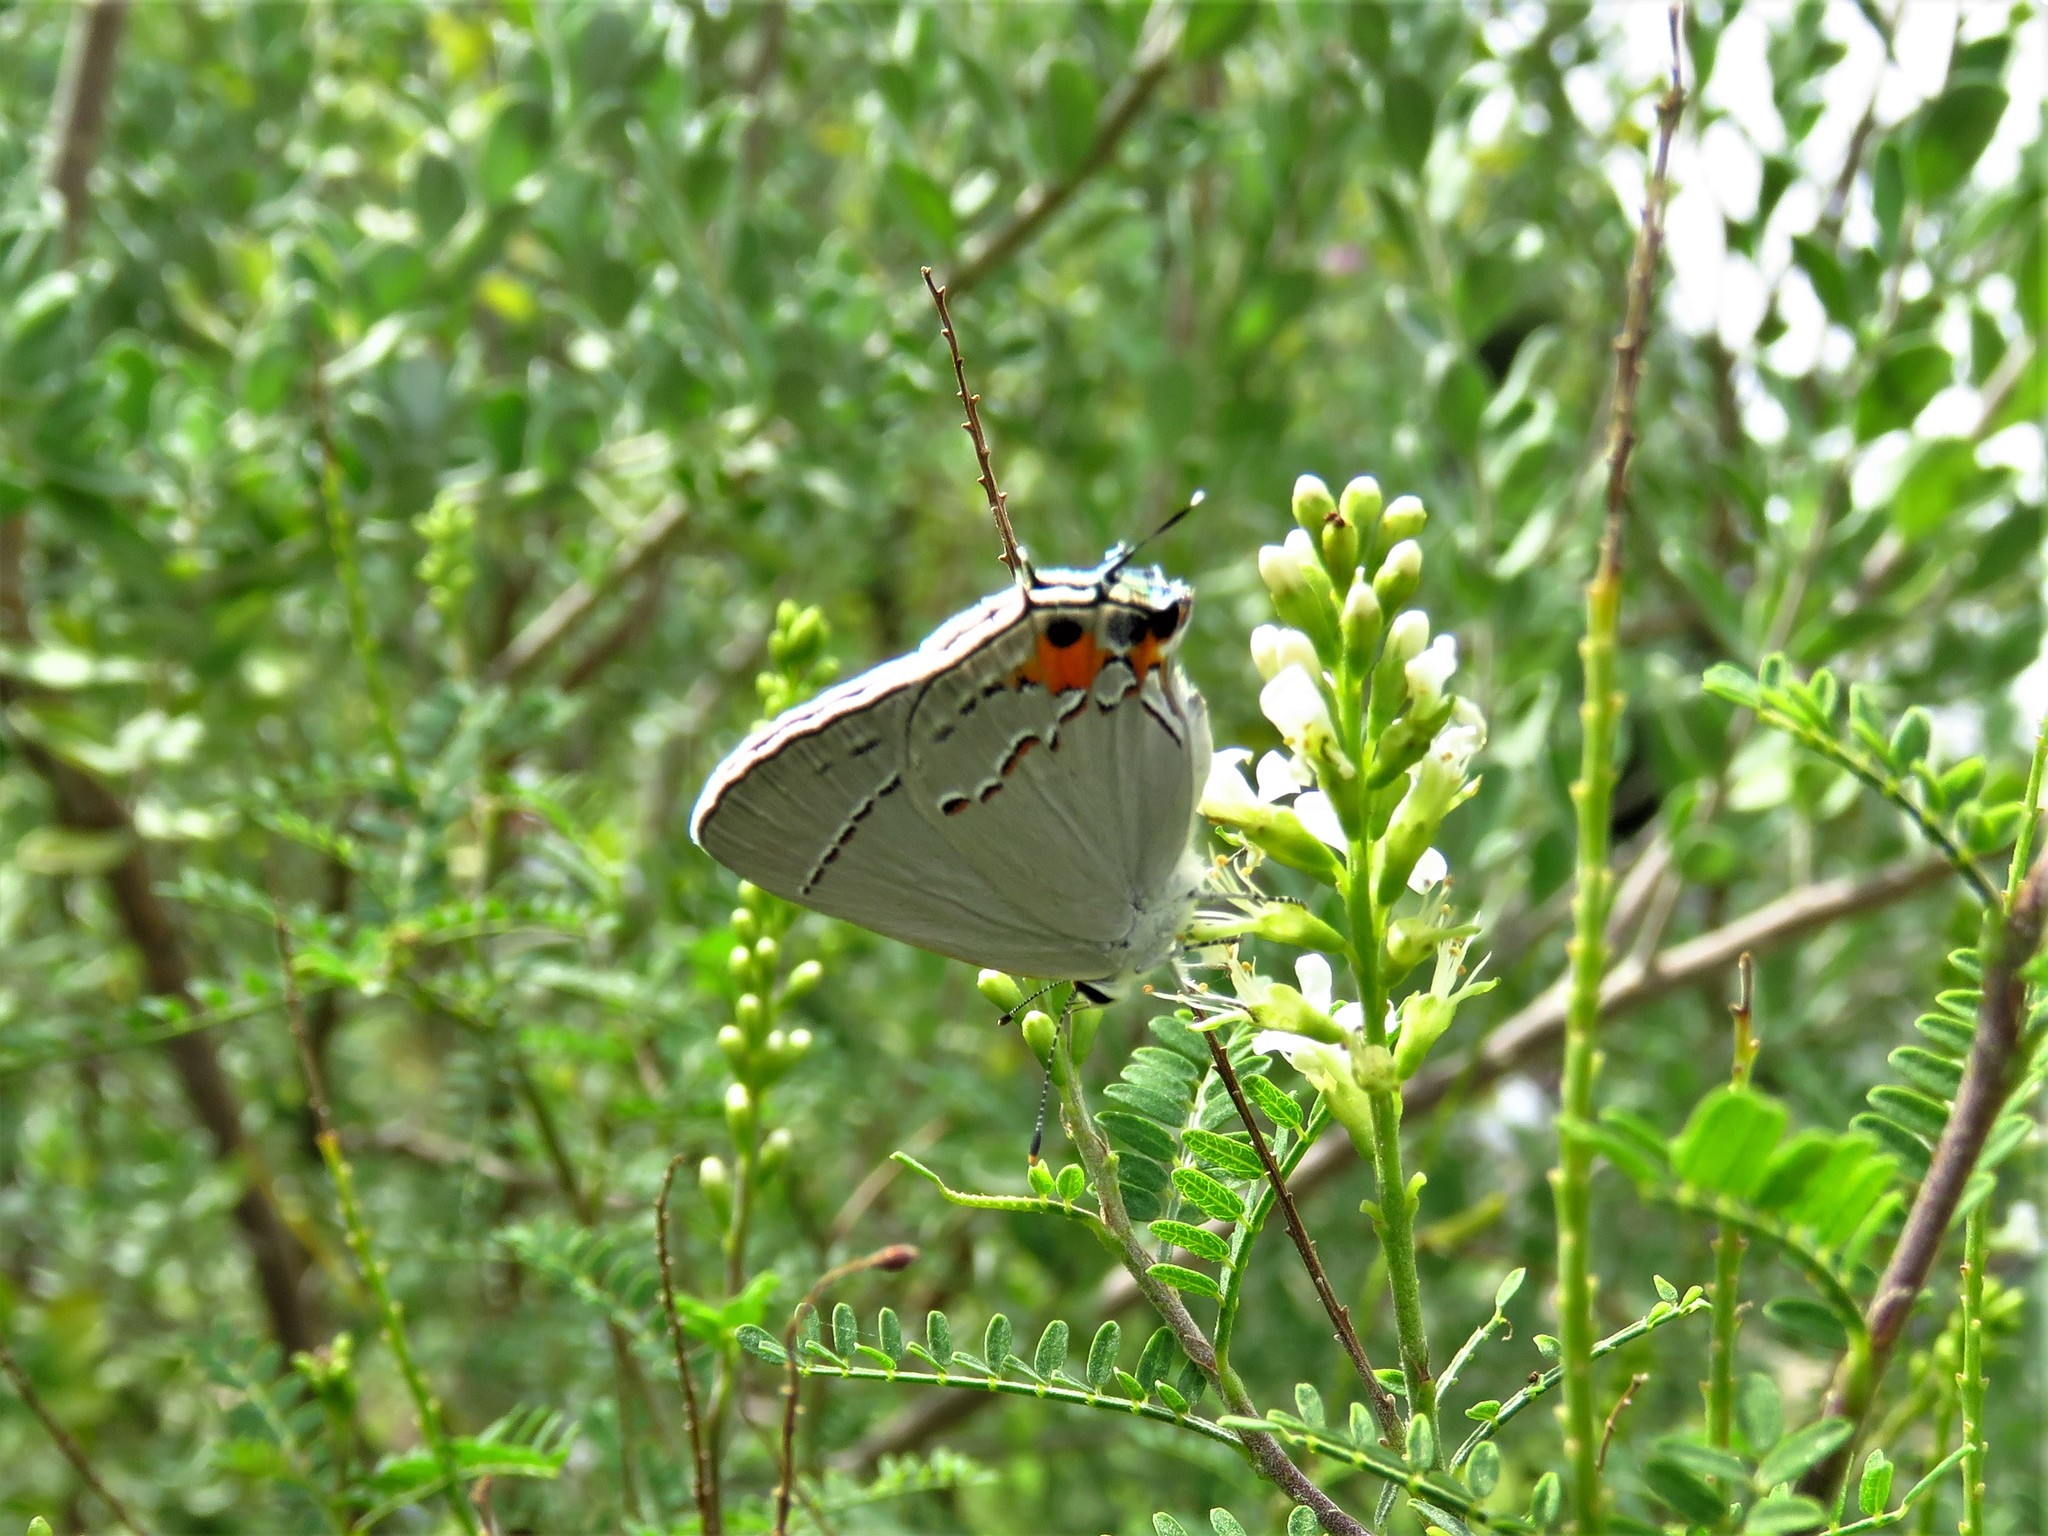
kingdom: Animalia
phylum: Arthropoda
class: Insecta
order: Lepidoptera
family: Lycaenidae
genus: Strymon
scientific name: Strymon melinus
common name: Gray hairstreak
